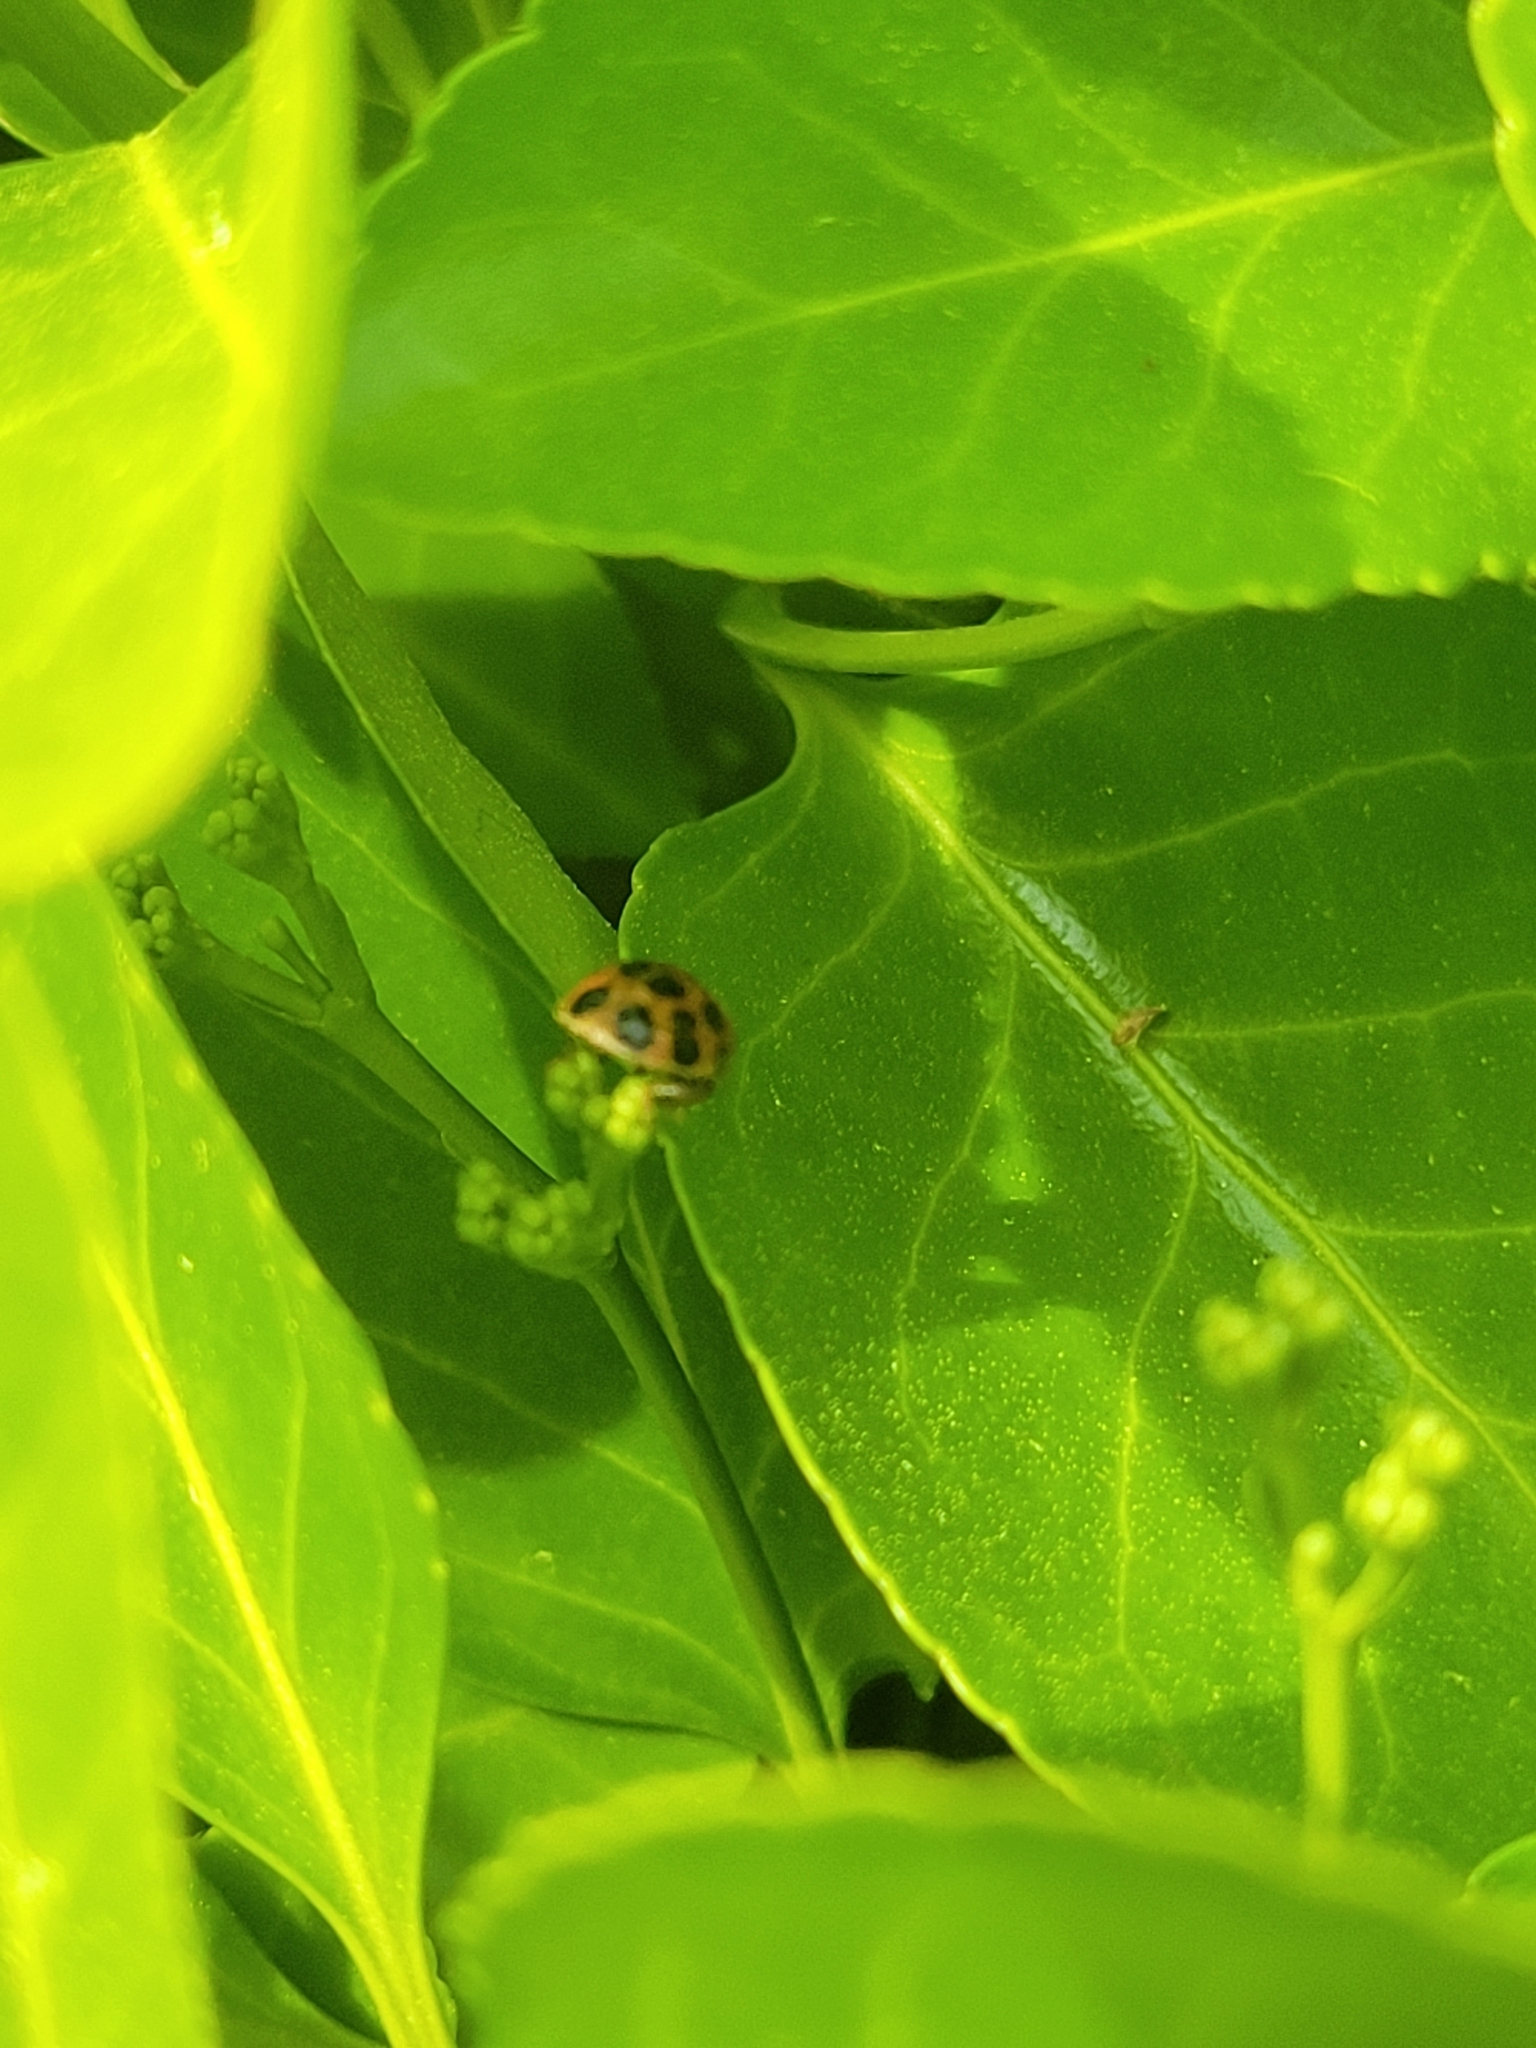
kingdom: Animalia
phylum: Arthropoda
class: Insecta
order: Coleoptera
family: Coccinellidae
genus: Harmonia
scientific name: Harmonia axyridis
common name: Harlequin ladybird
